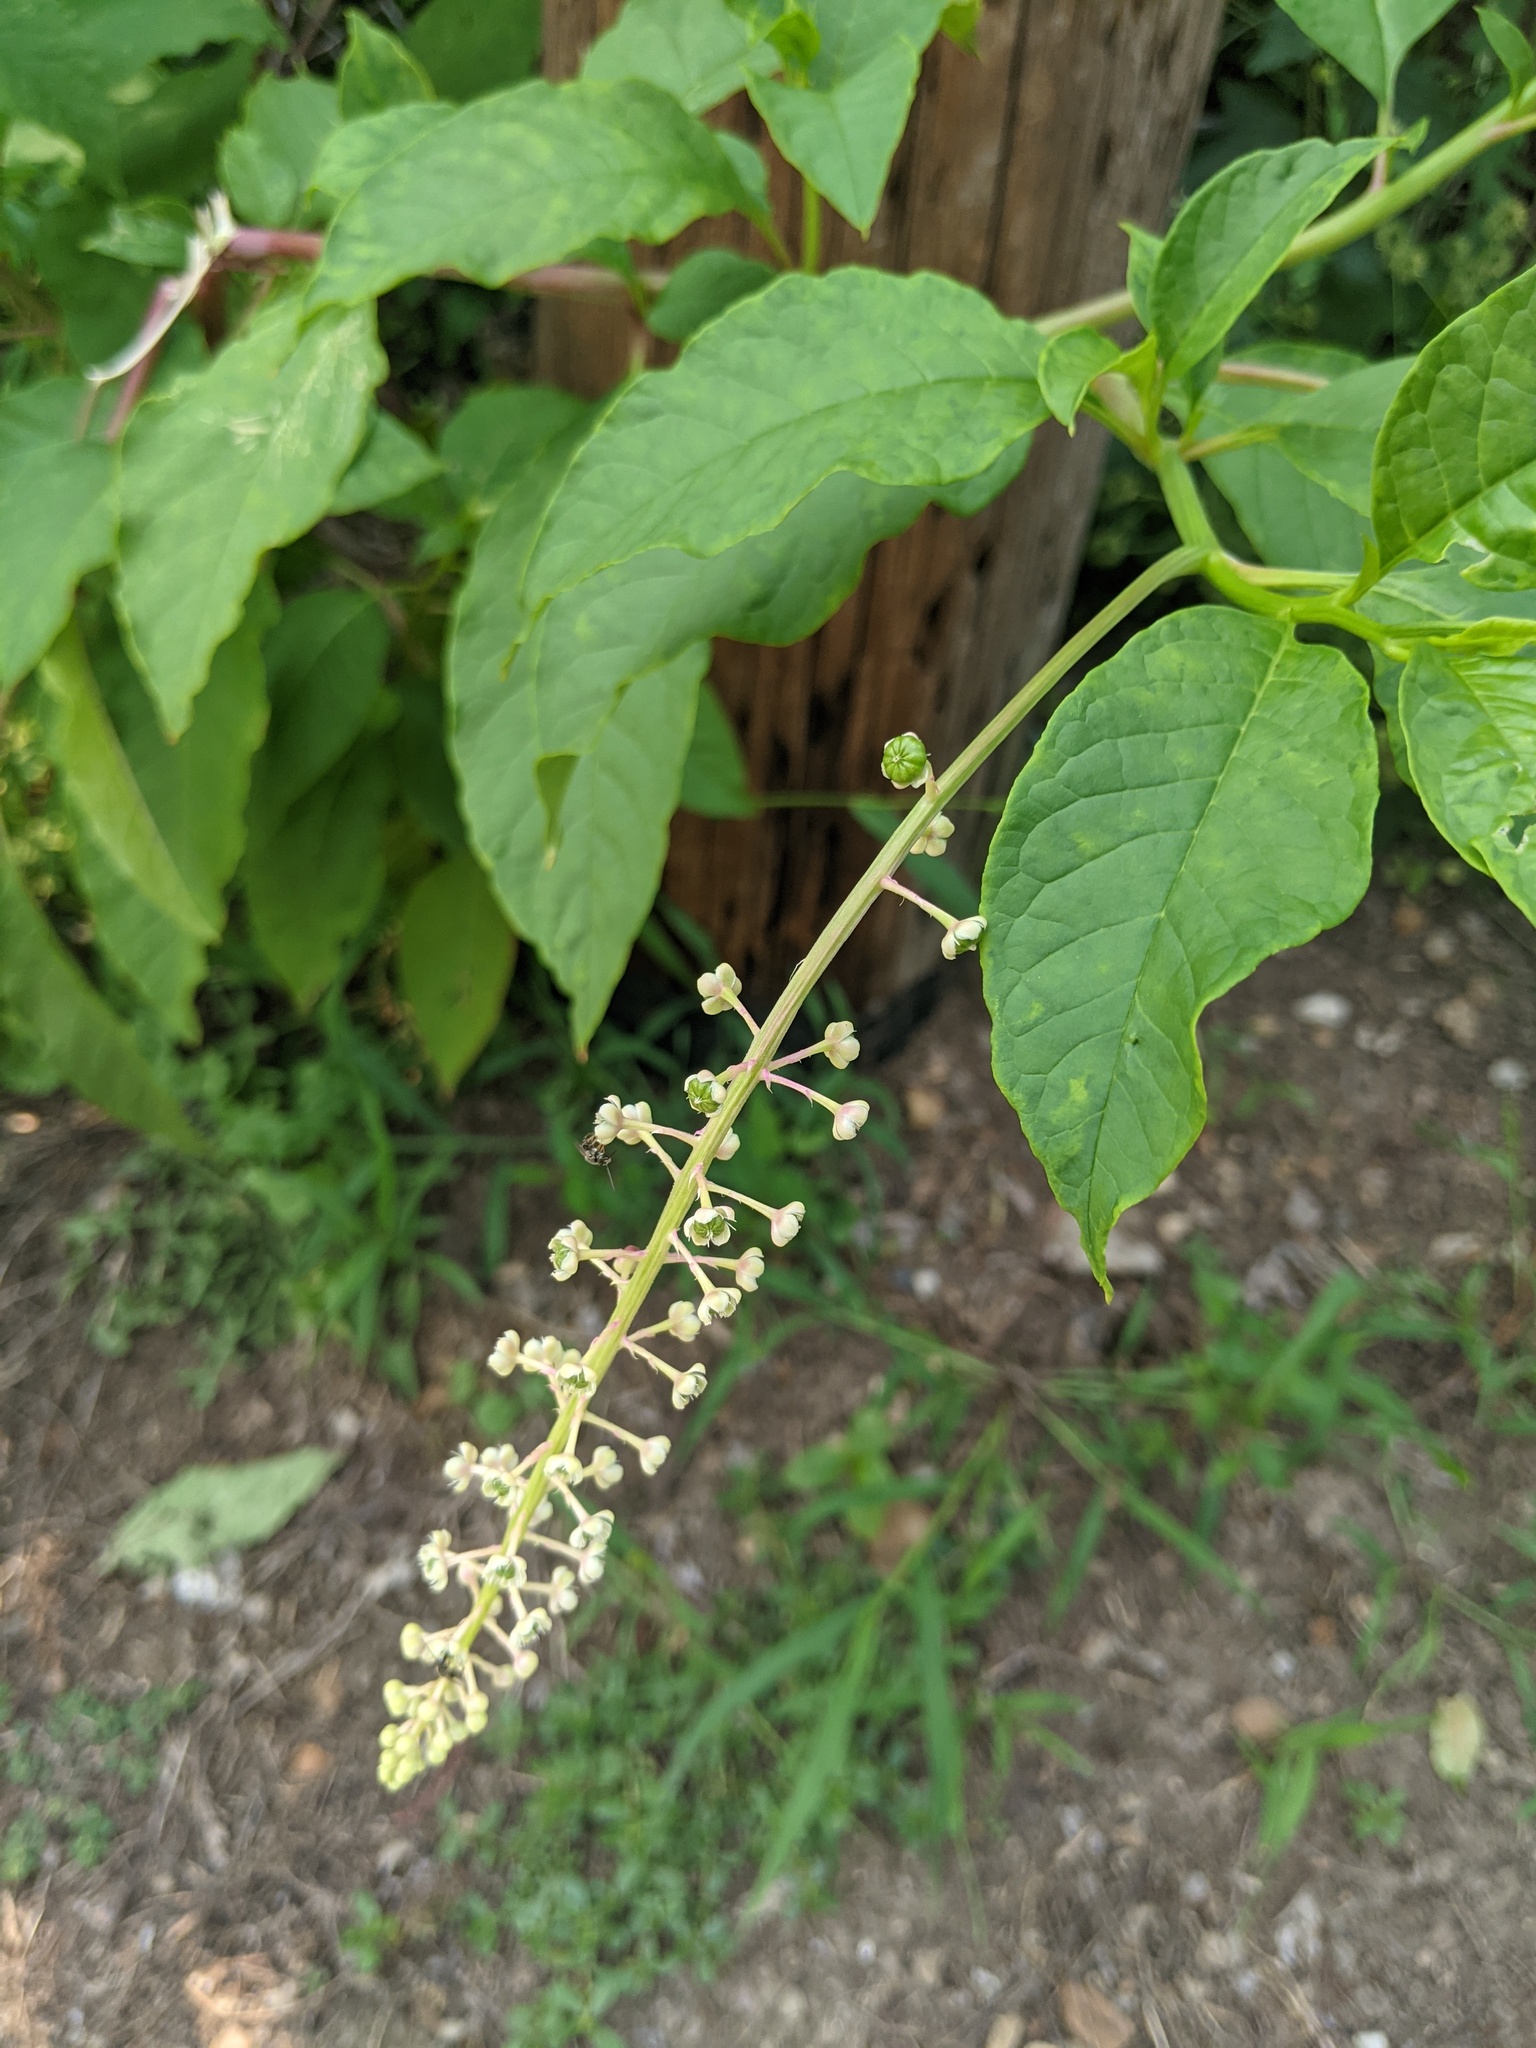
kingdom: Animalia
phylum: Arthropoda
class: Insecta
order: Hymenoptera
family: Halictidae
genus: Dialictus
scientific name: Dialictus
